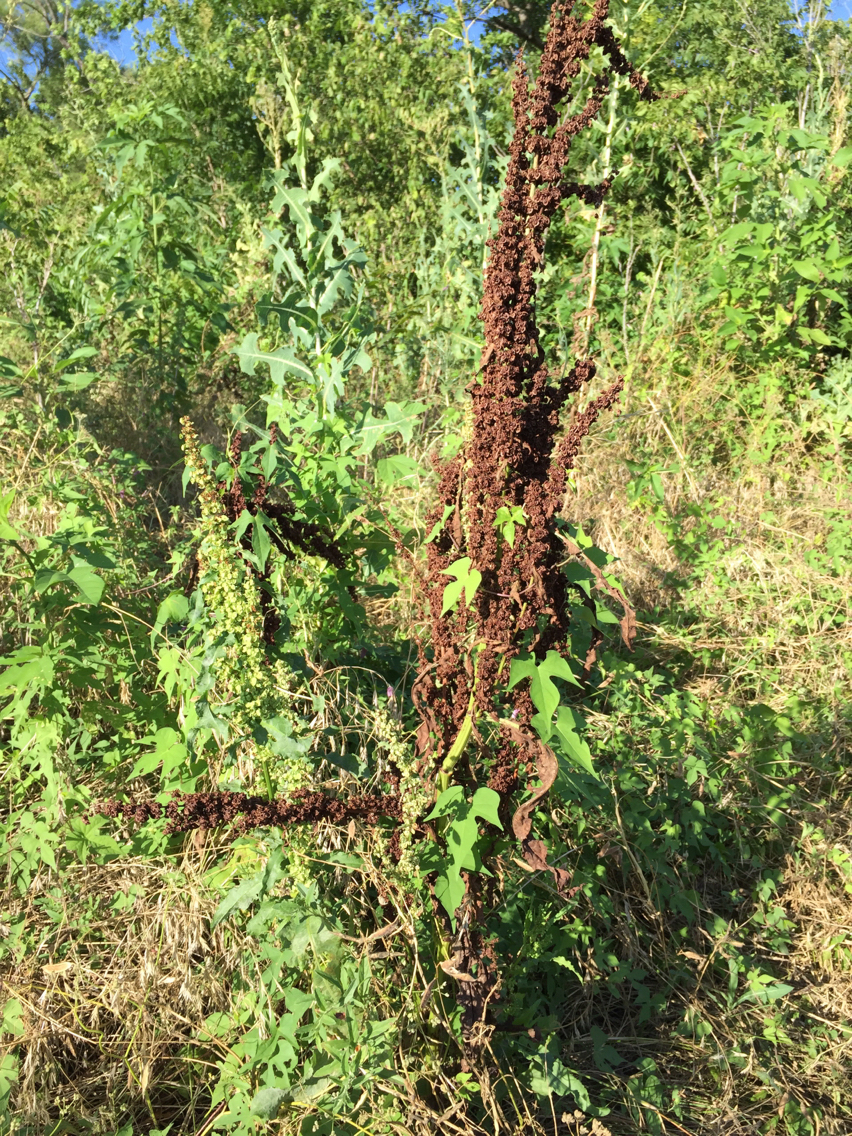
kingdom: Plantae
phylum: Tracheophyta
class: Magnoliopsida
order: Caryophyllales
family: Polygonaceae
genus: Rumex
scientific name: Rumex crispus
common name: Curled dock
